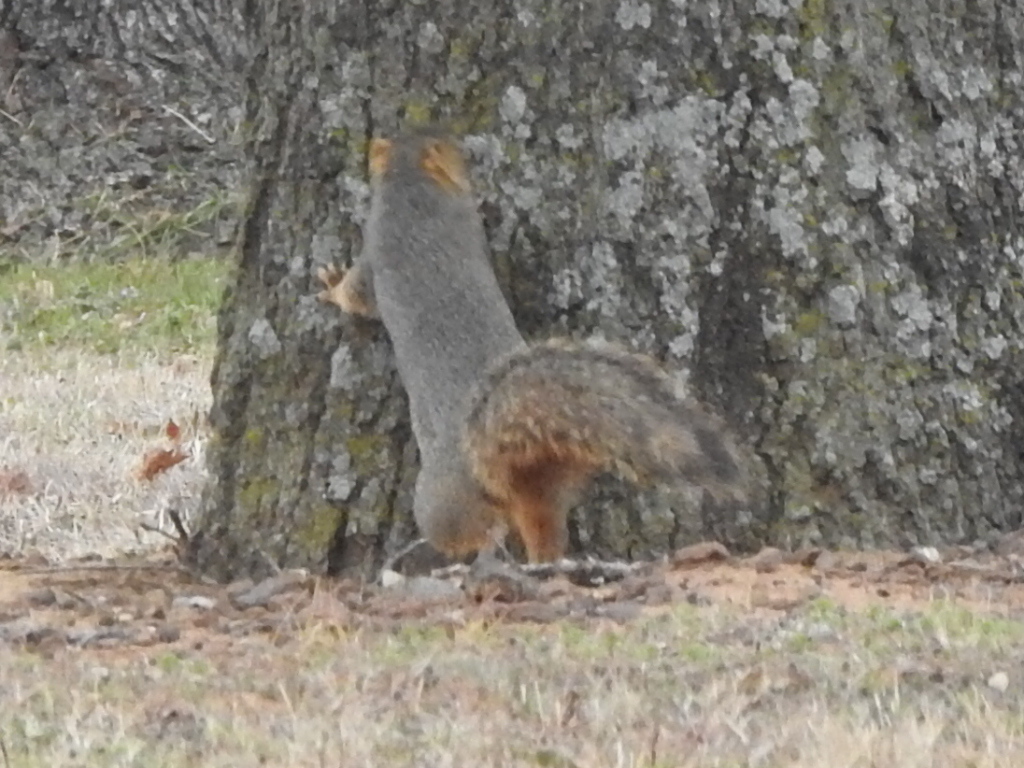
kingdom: Animalia
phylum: Chordata
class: Mammalia
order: Rodentia
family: Sciuridae
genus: Sciurus
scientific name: Sciurus niger
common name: Fox squirrel
